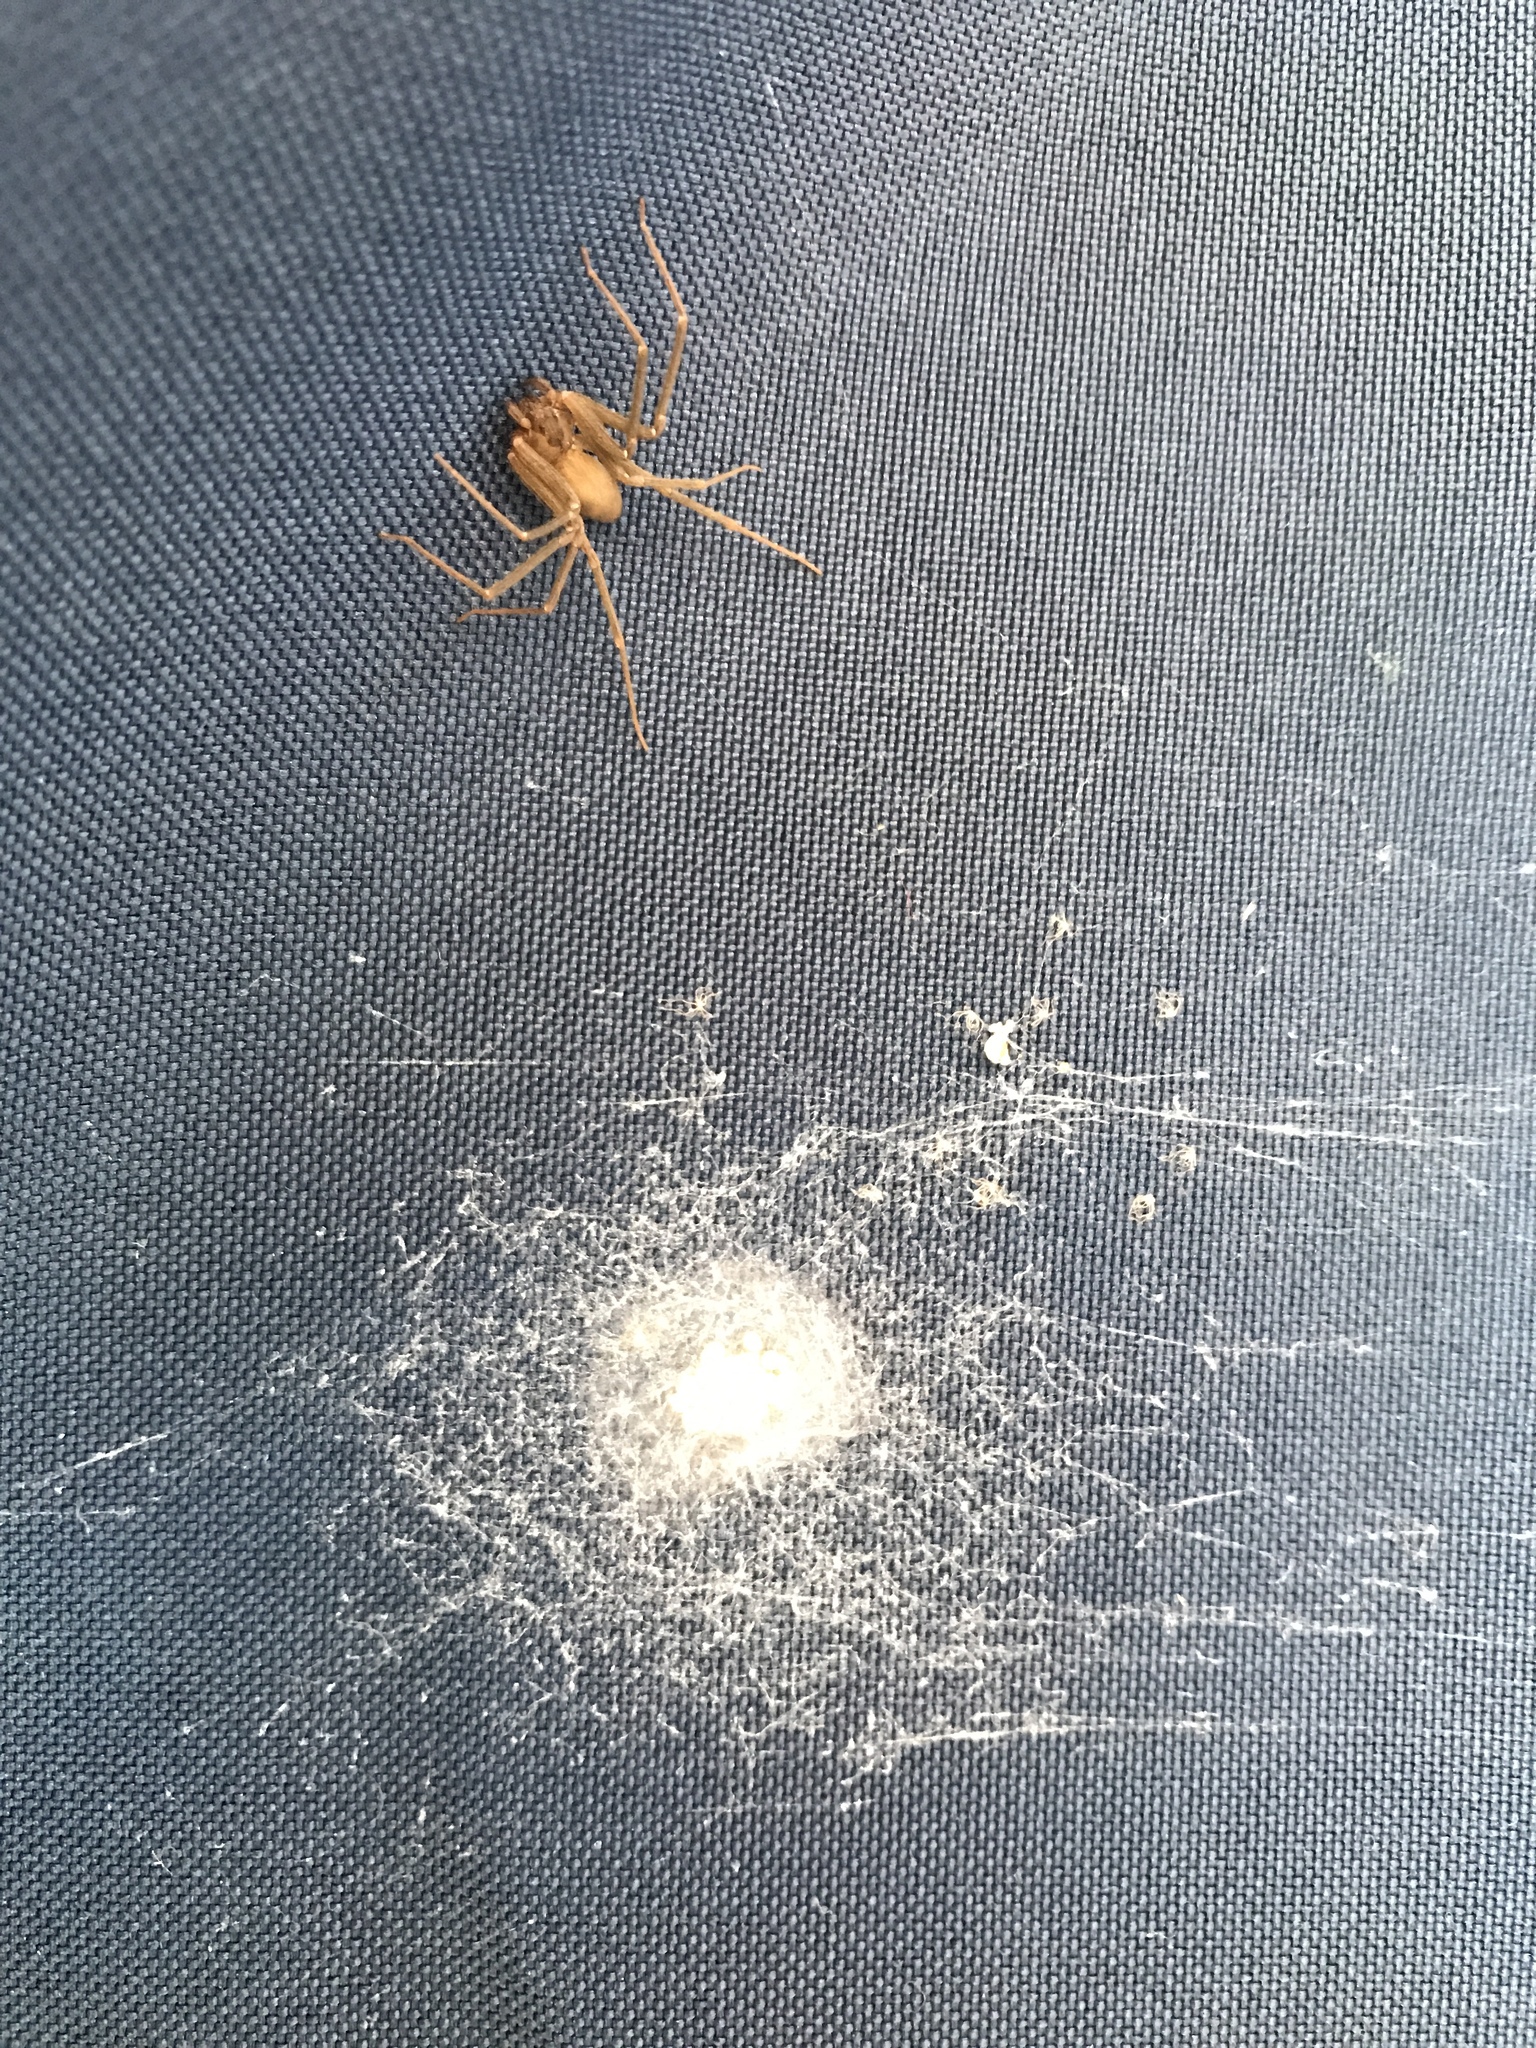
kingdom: Animalia
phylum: Arthropoda
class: Arachnida
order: Araneae
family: Sicariidae
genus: Loxosceles
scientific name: Loxosceles reclusa
